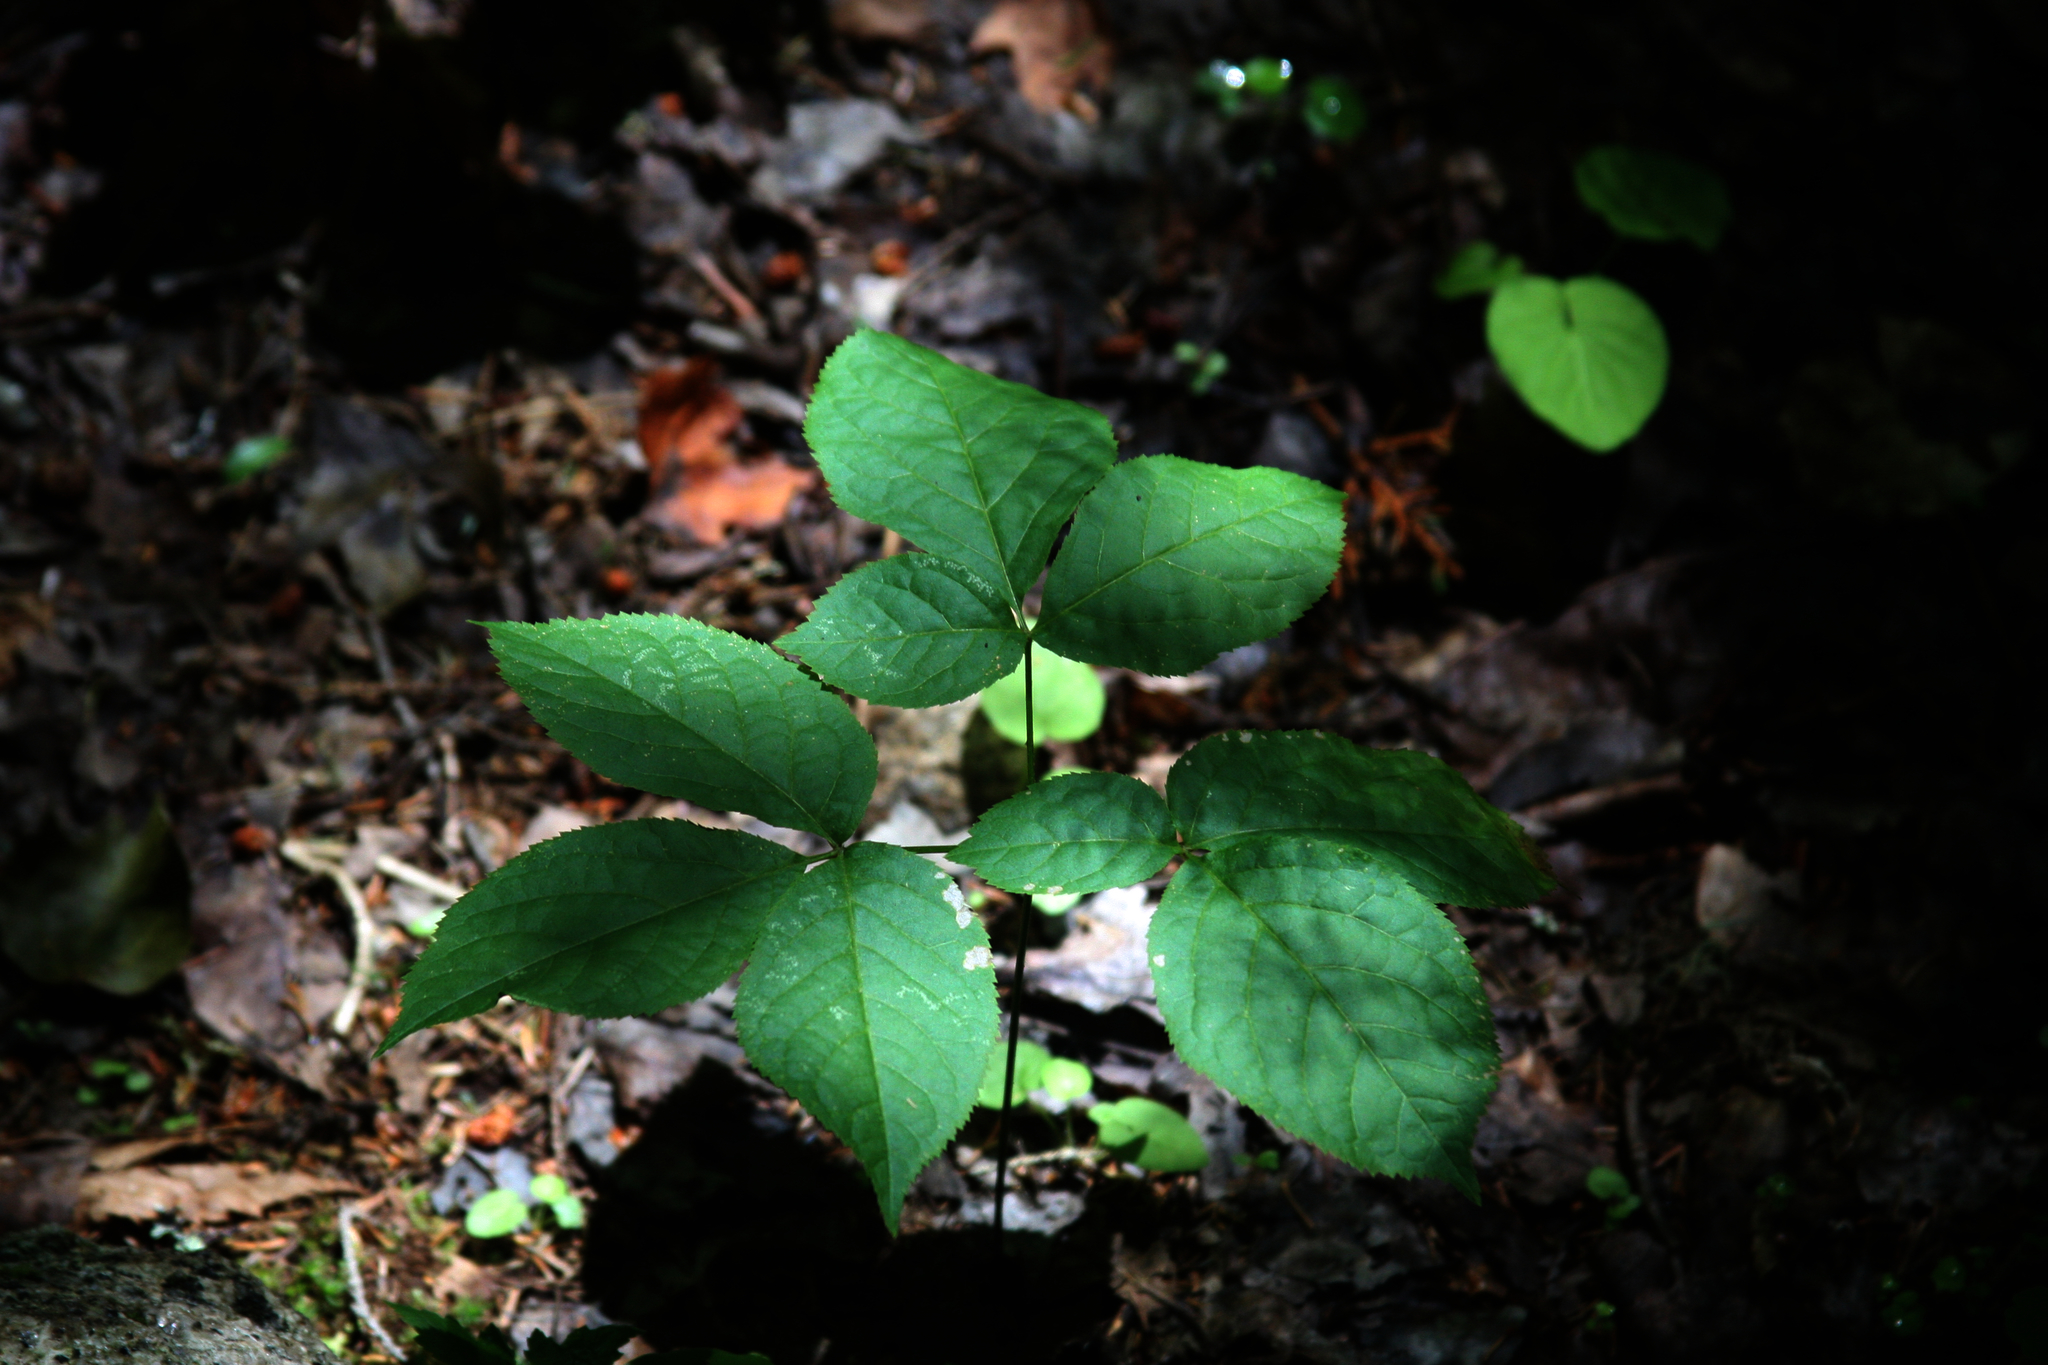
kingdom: Plantae
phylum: Tracheophyta
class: Magnoliopsida
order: Apiales
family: Araliaceae
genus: Aralia
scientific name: Aralia nudicaulis
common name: Wild sarsaparilla
